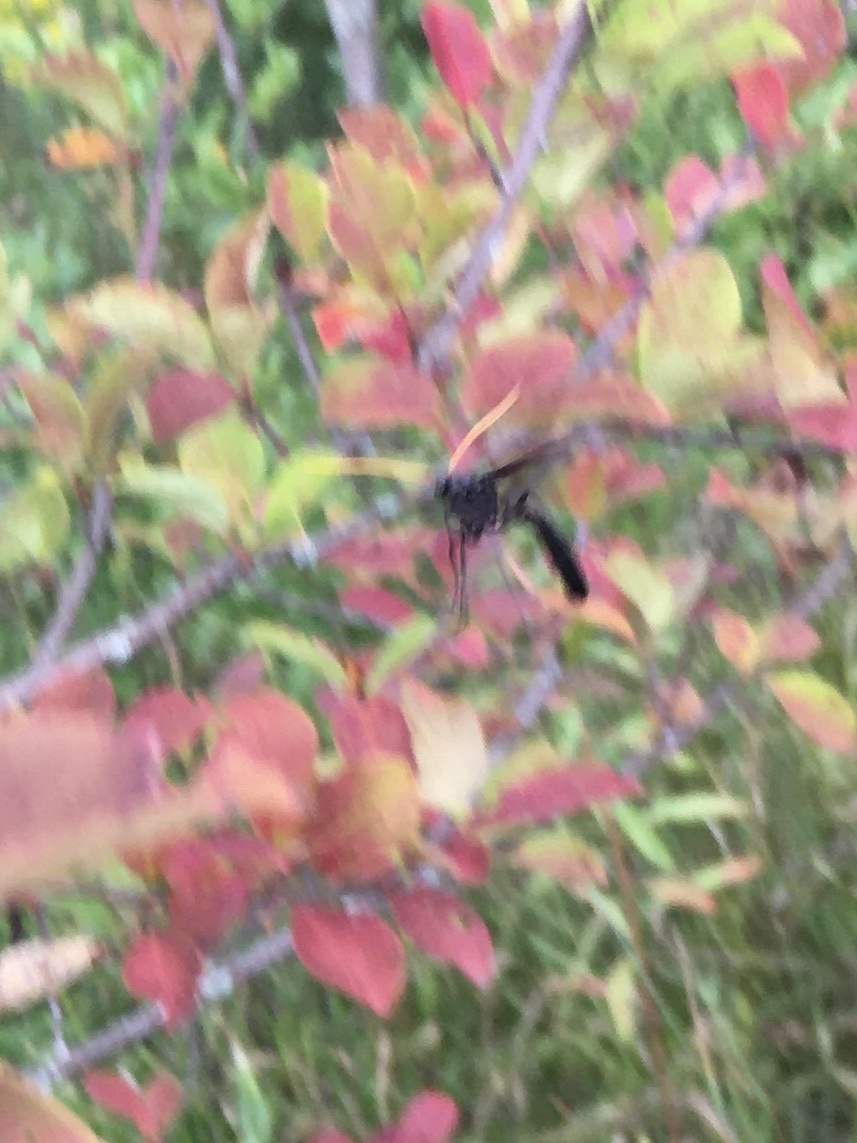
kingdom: Animalia
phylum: Arthropoda
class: Insecta
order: Hymenoptera
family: Ichneumonidae
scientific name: Ichneumonidae
